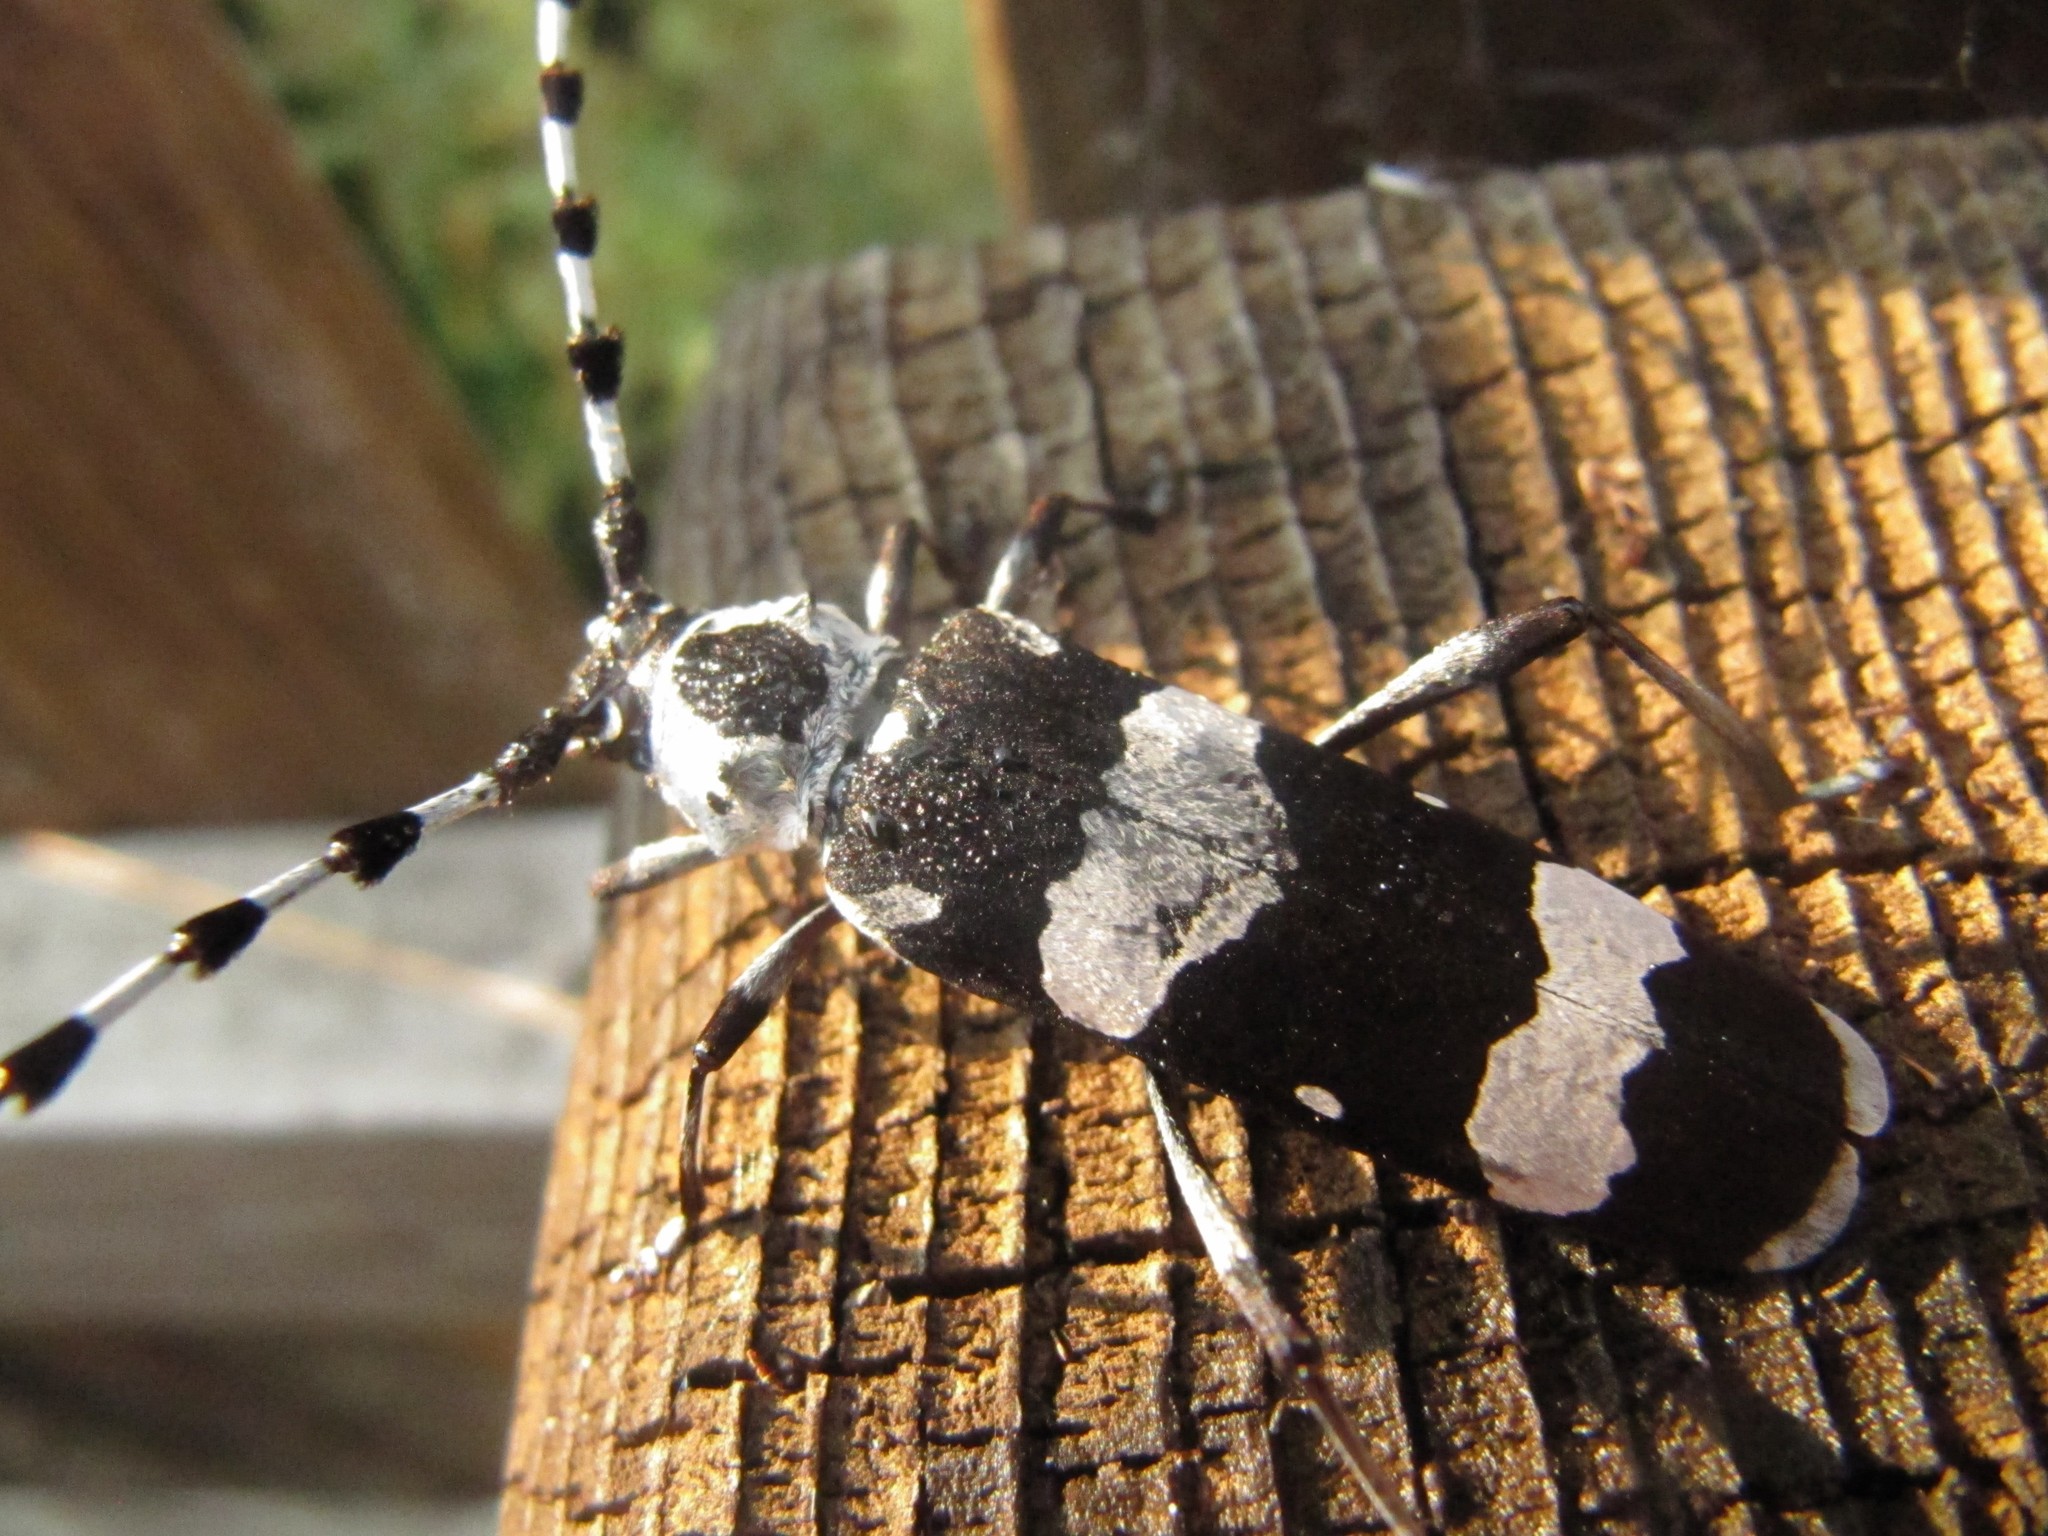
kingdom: Animalia
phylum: Arthropoda
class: Insecta
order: Coleoptera
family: Cerambycidae
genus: Rosalia
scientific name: Rosalia funebris
